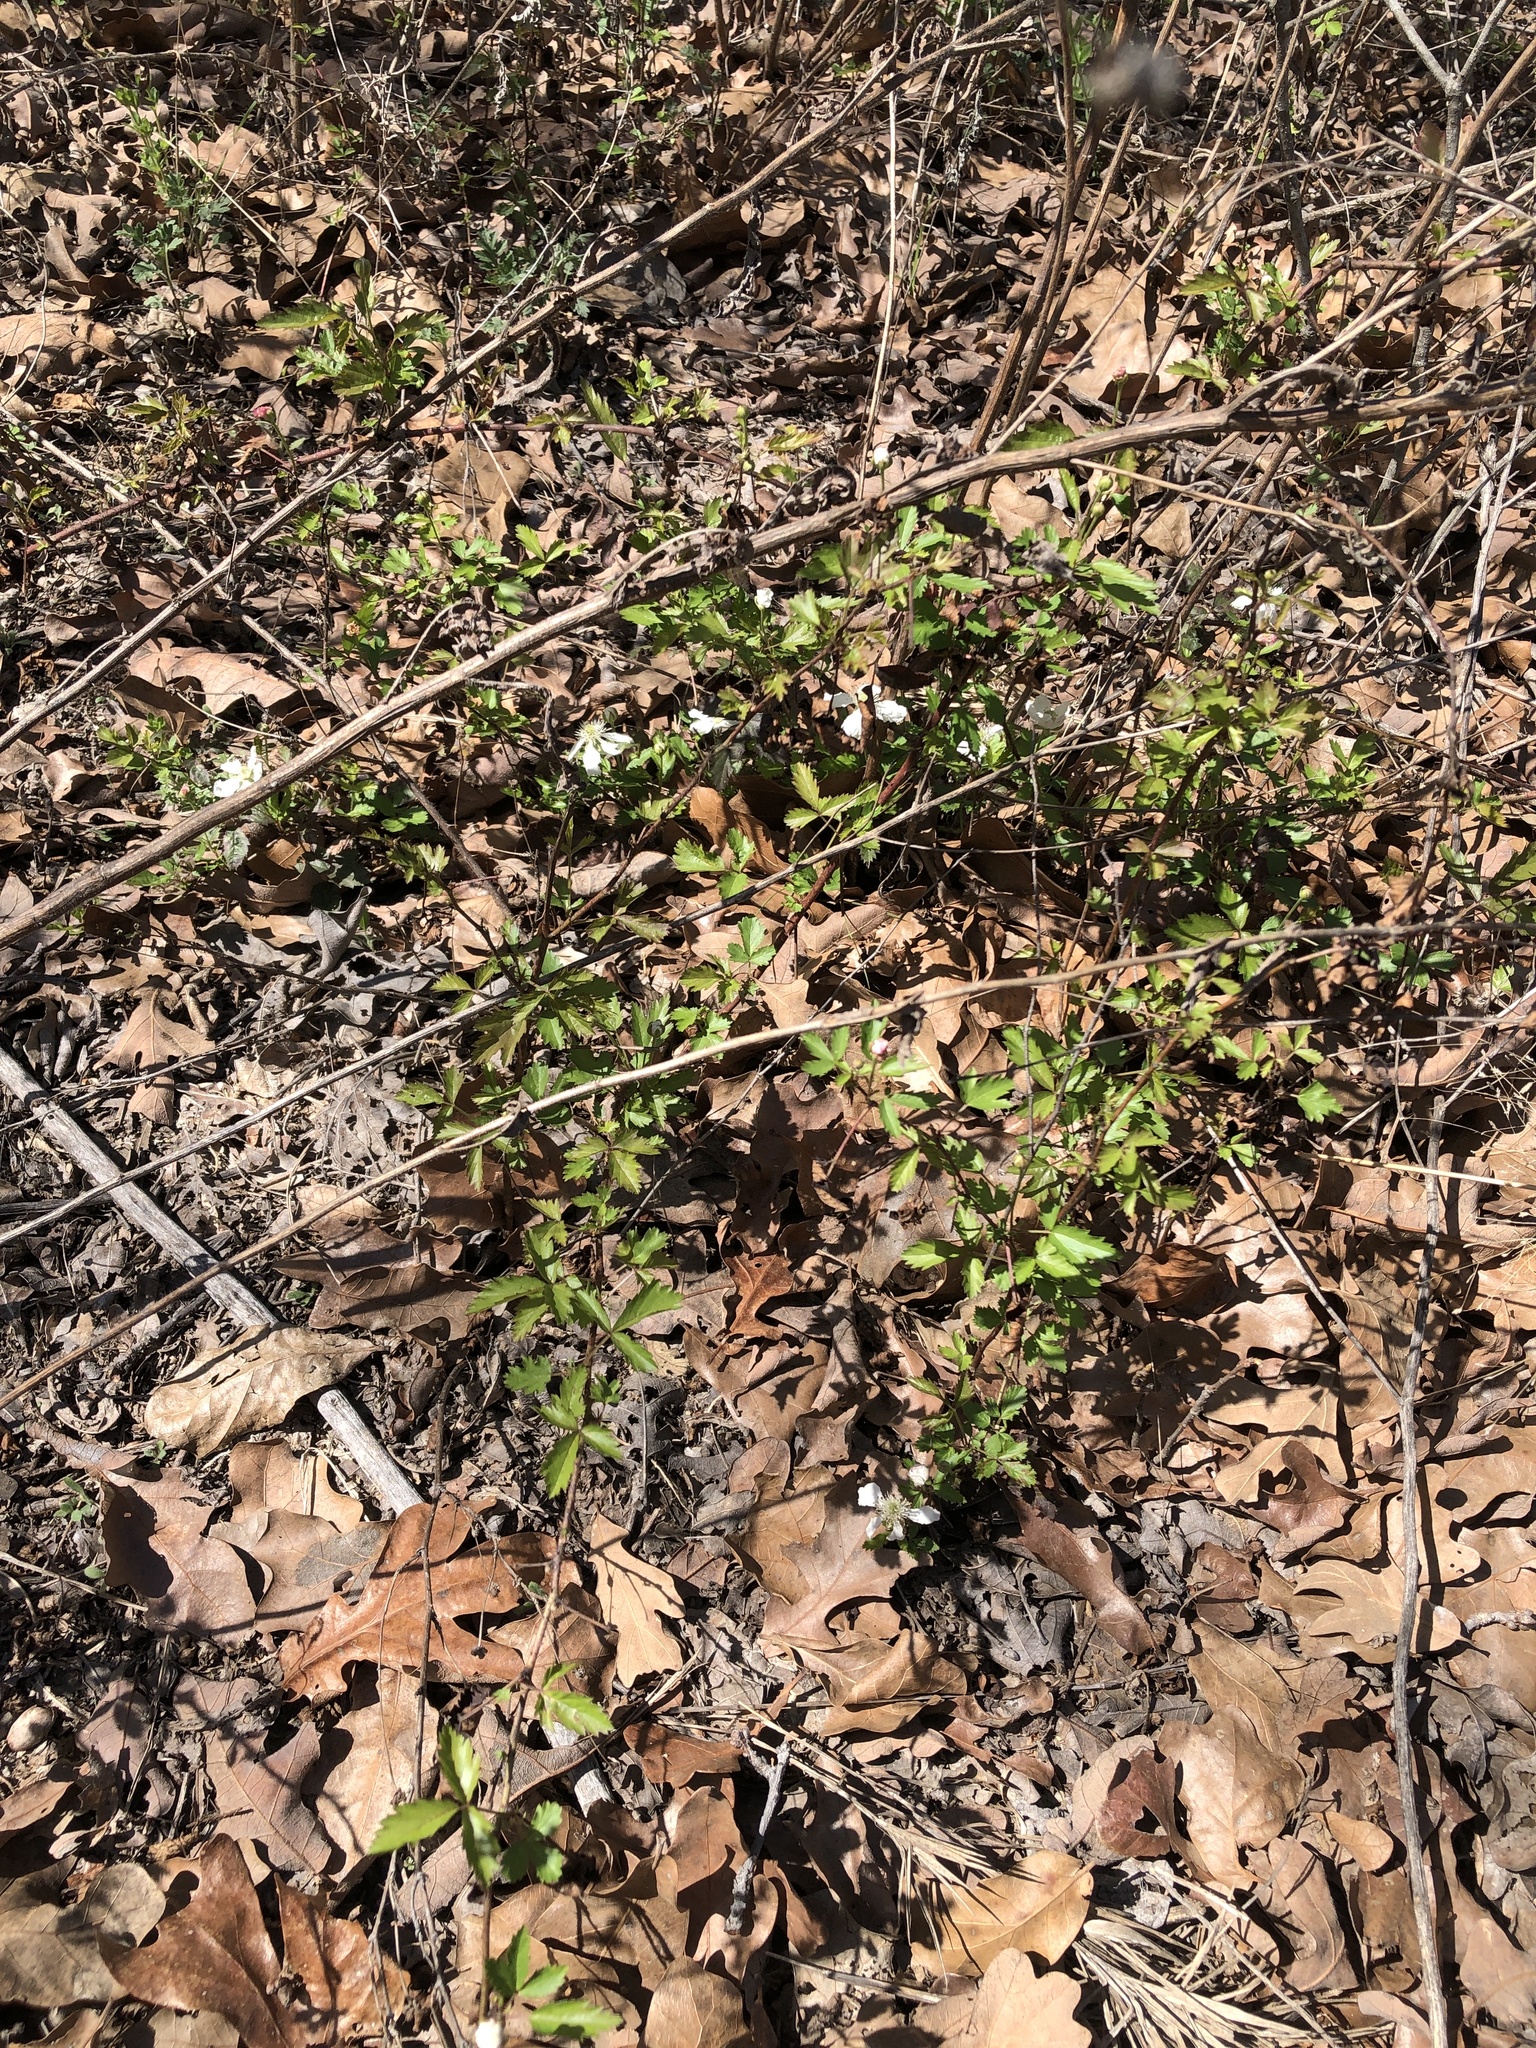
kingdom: Plantae
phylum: Tracheophyta
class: Magnoliopsida
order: Rosales
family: Rosaceae
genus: Rubus
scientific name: Rubus trivialis
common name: Southern dewberry
